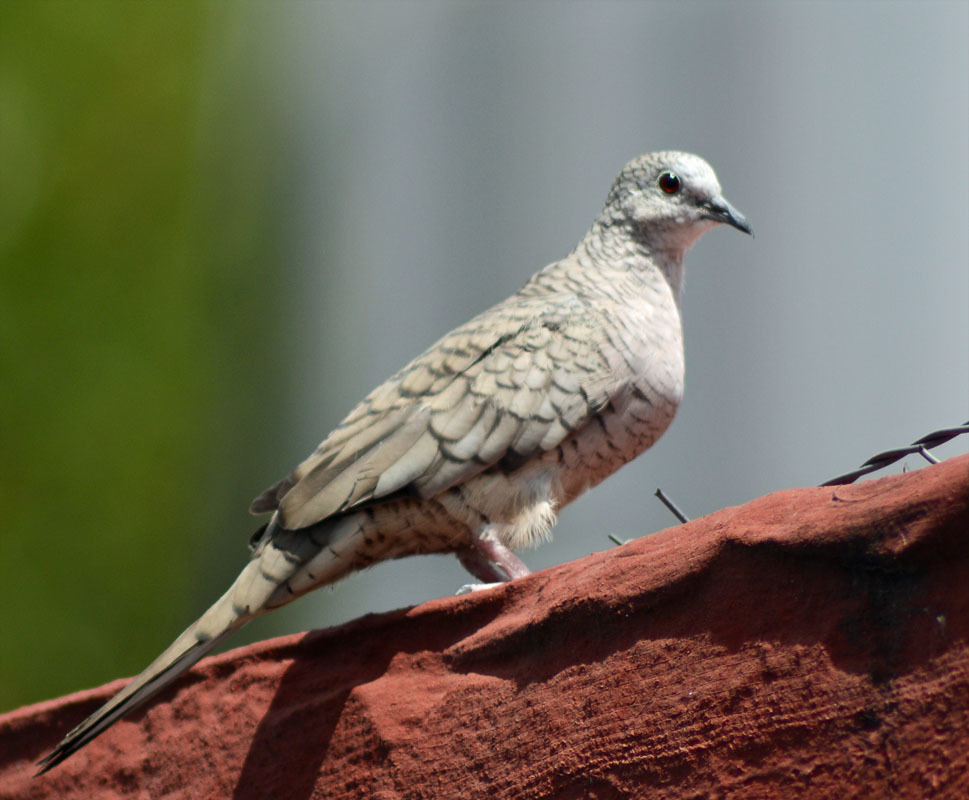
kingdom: Animalia
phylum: Chordata
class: Aves
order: Columbiformes
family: Columbidae
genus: Columbina
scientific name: Columbina inca
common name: Inca dove
